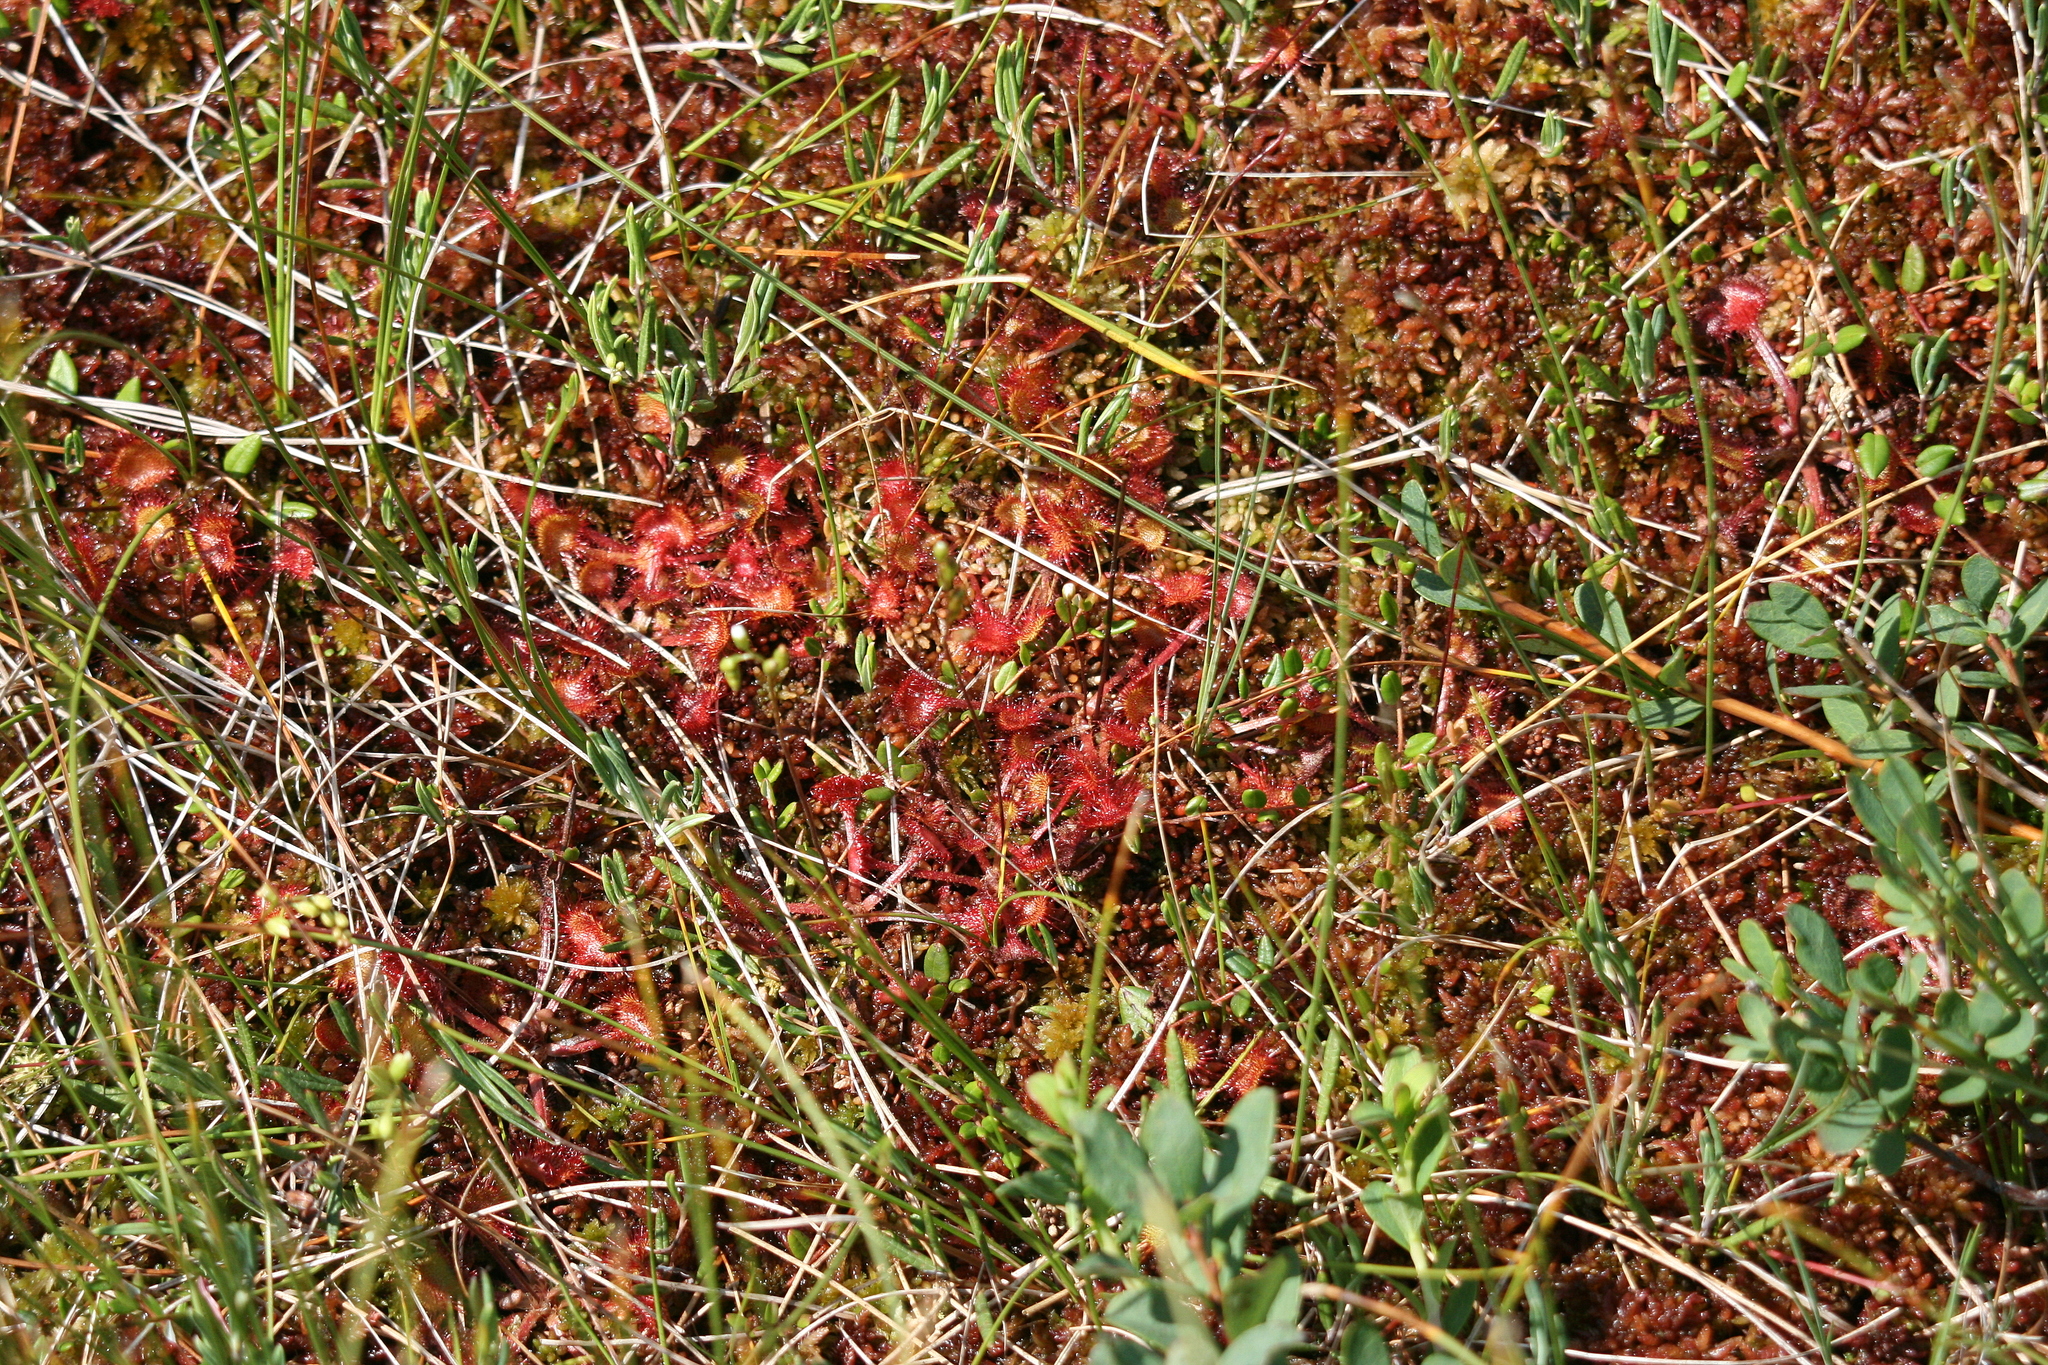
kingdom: Plantae
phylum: Tracheophyta
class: Magnoliopsida
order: Caryophyllales
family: Droseraceae
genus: Drosera
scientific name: Drosera rotundifolia
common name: Round-leaved sundew
